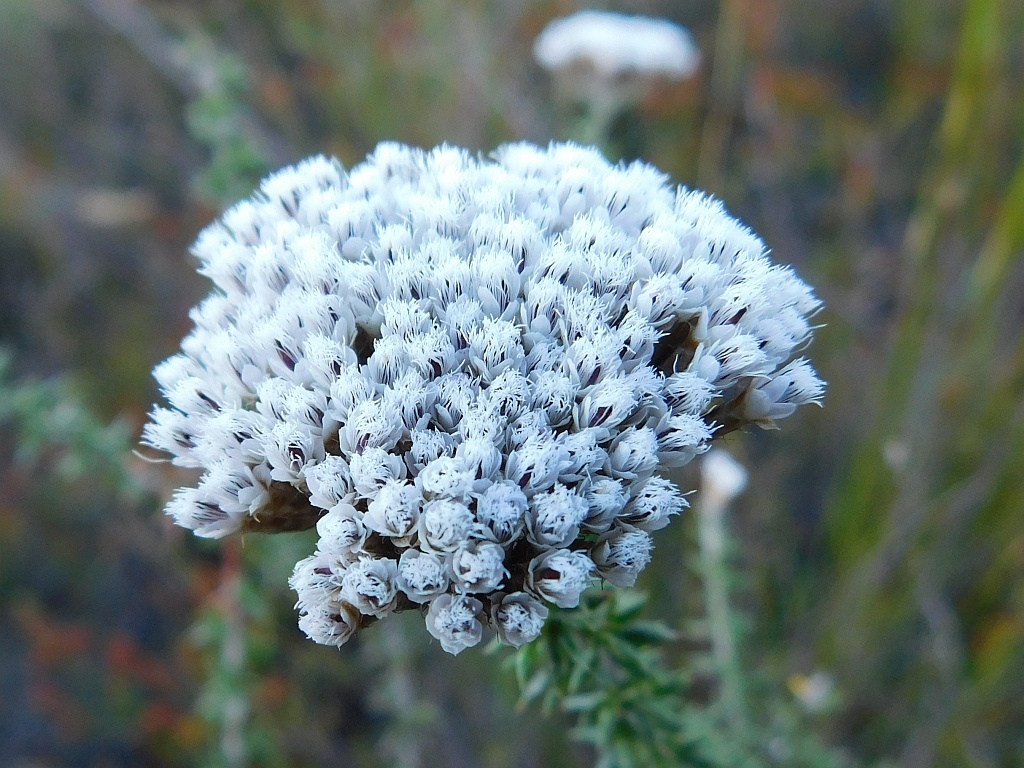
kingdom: Plantae
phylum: Tracheophyta
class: Magnoliopsida
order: Asterales
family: Asteraceae
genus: Metalasia
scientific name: Metalasia densa
